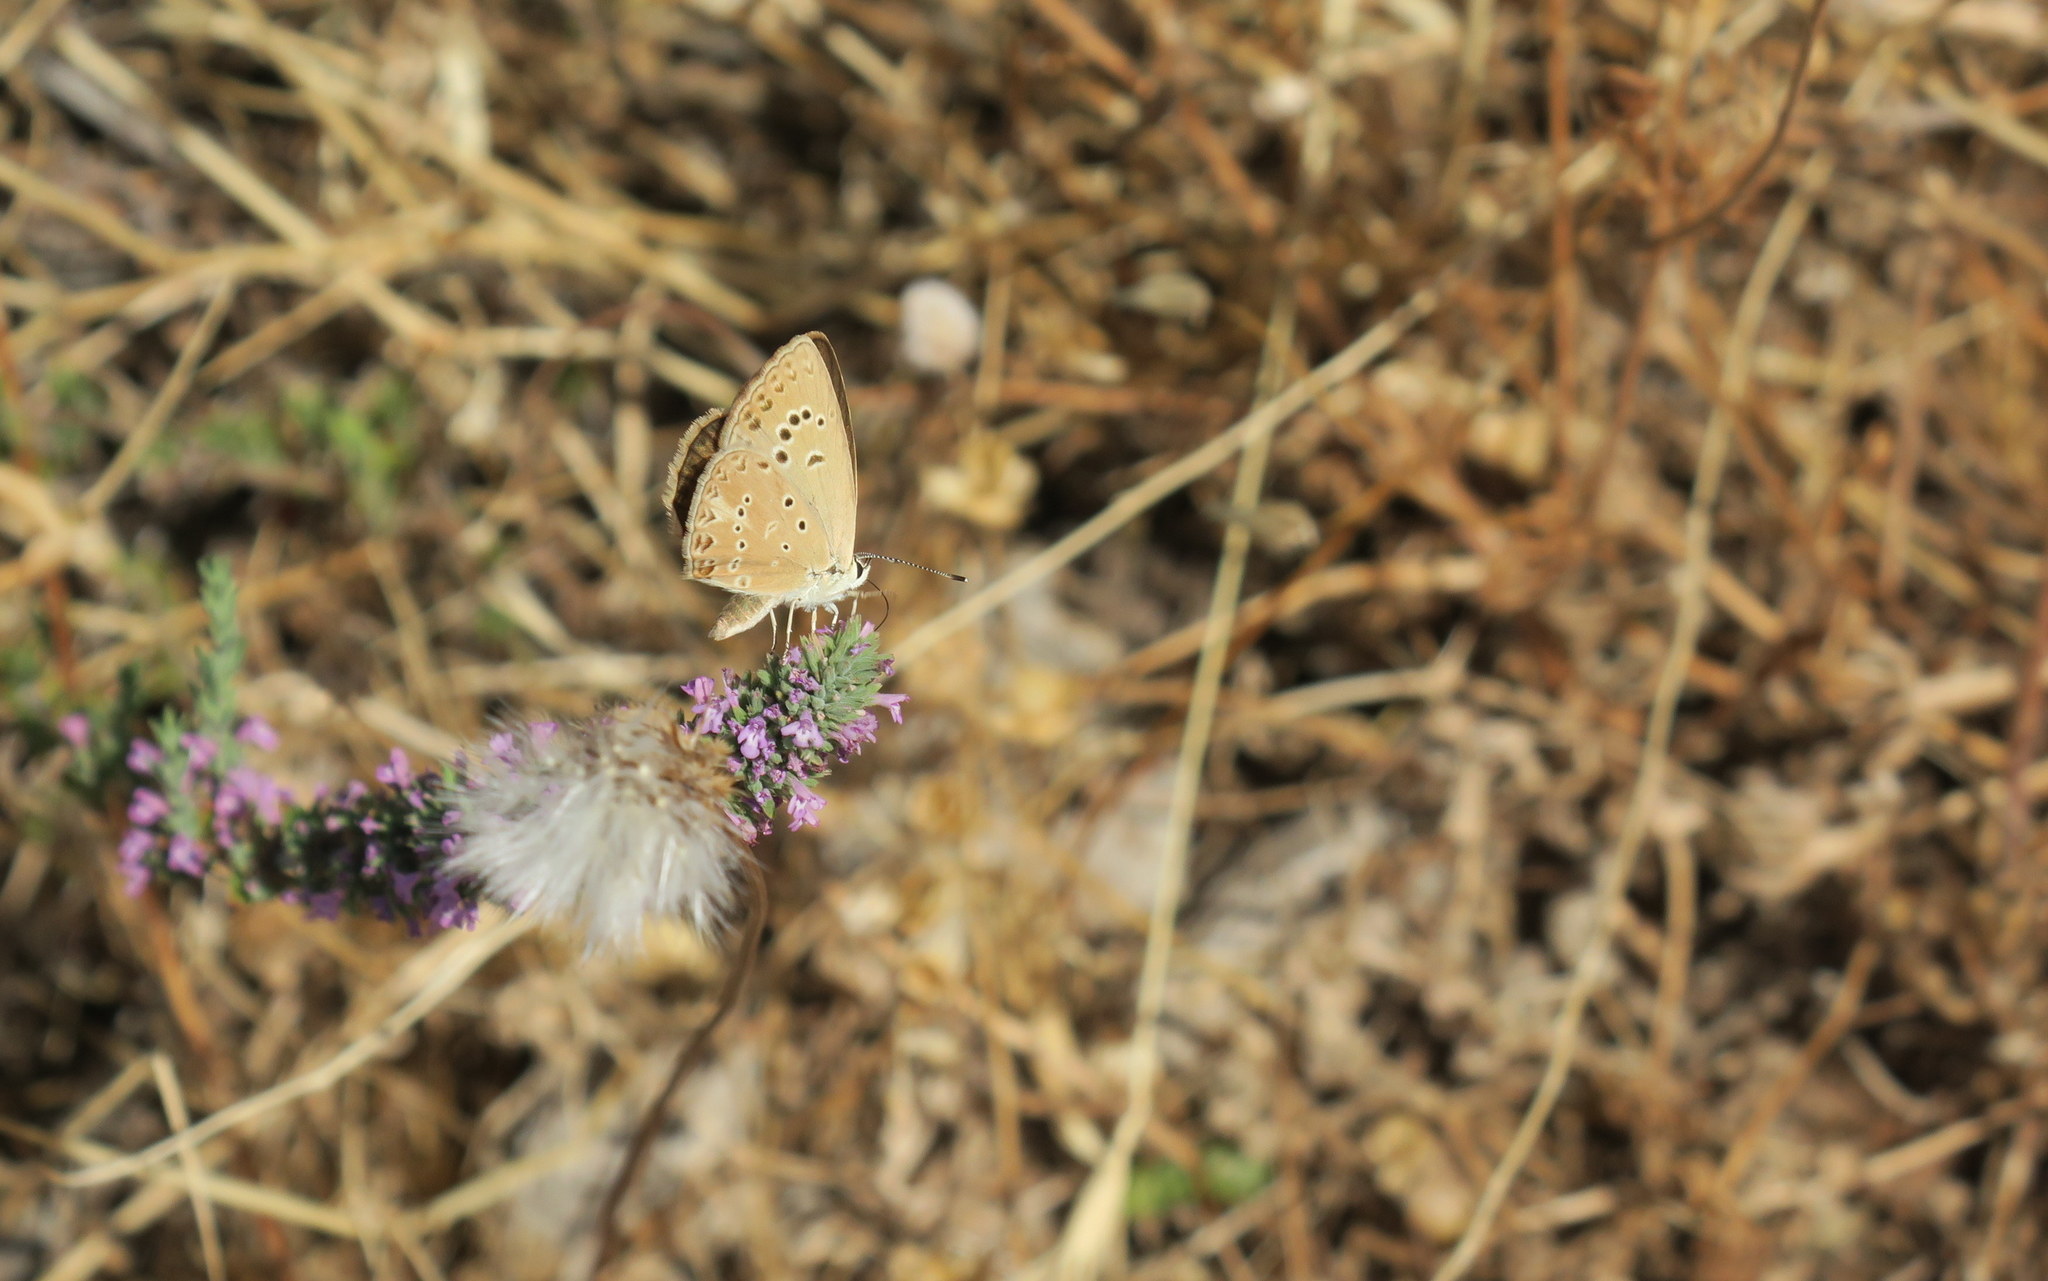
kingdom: Animalia
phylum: Arthropoda
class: Insecta
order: Lepidoptera
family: Lycaenidae
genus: Agrodiaetus
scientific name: Agrodiaetus admetus
